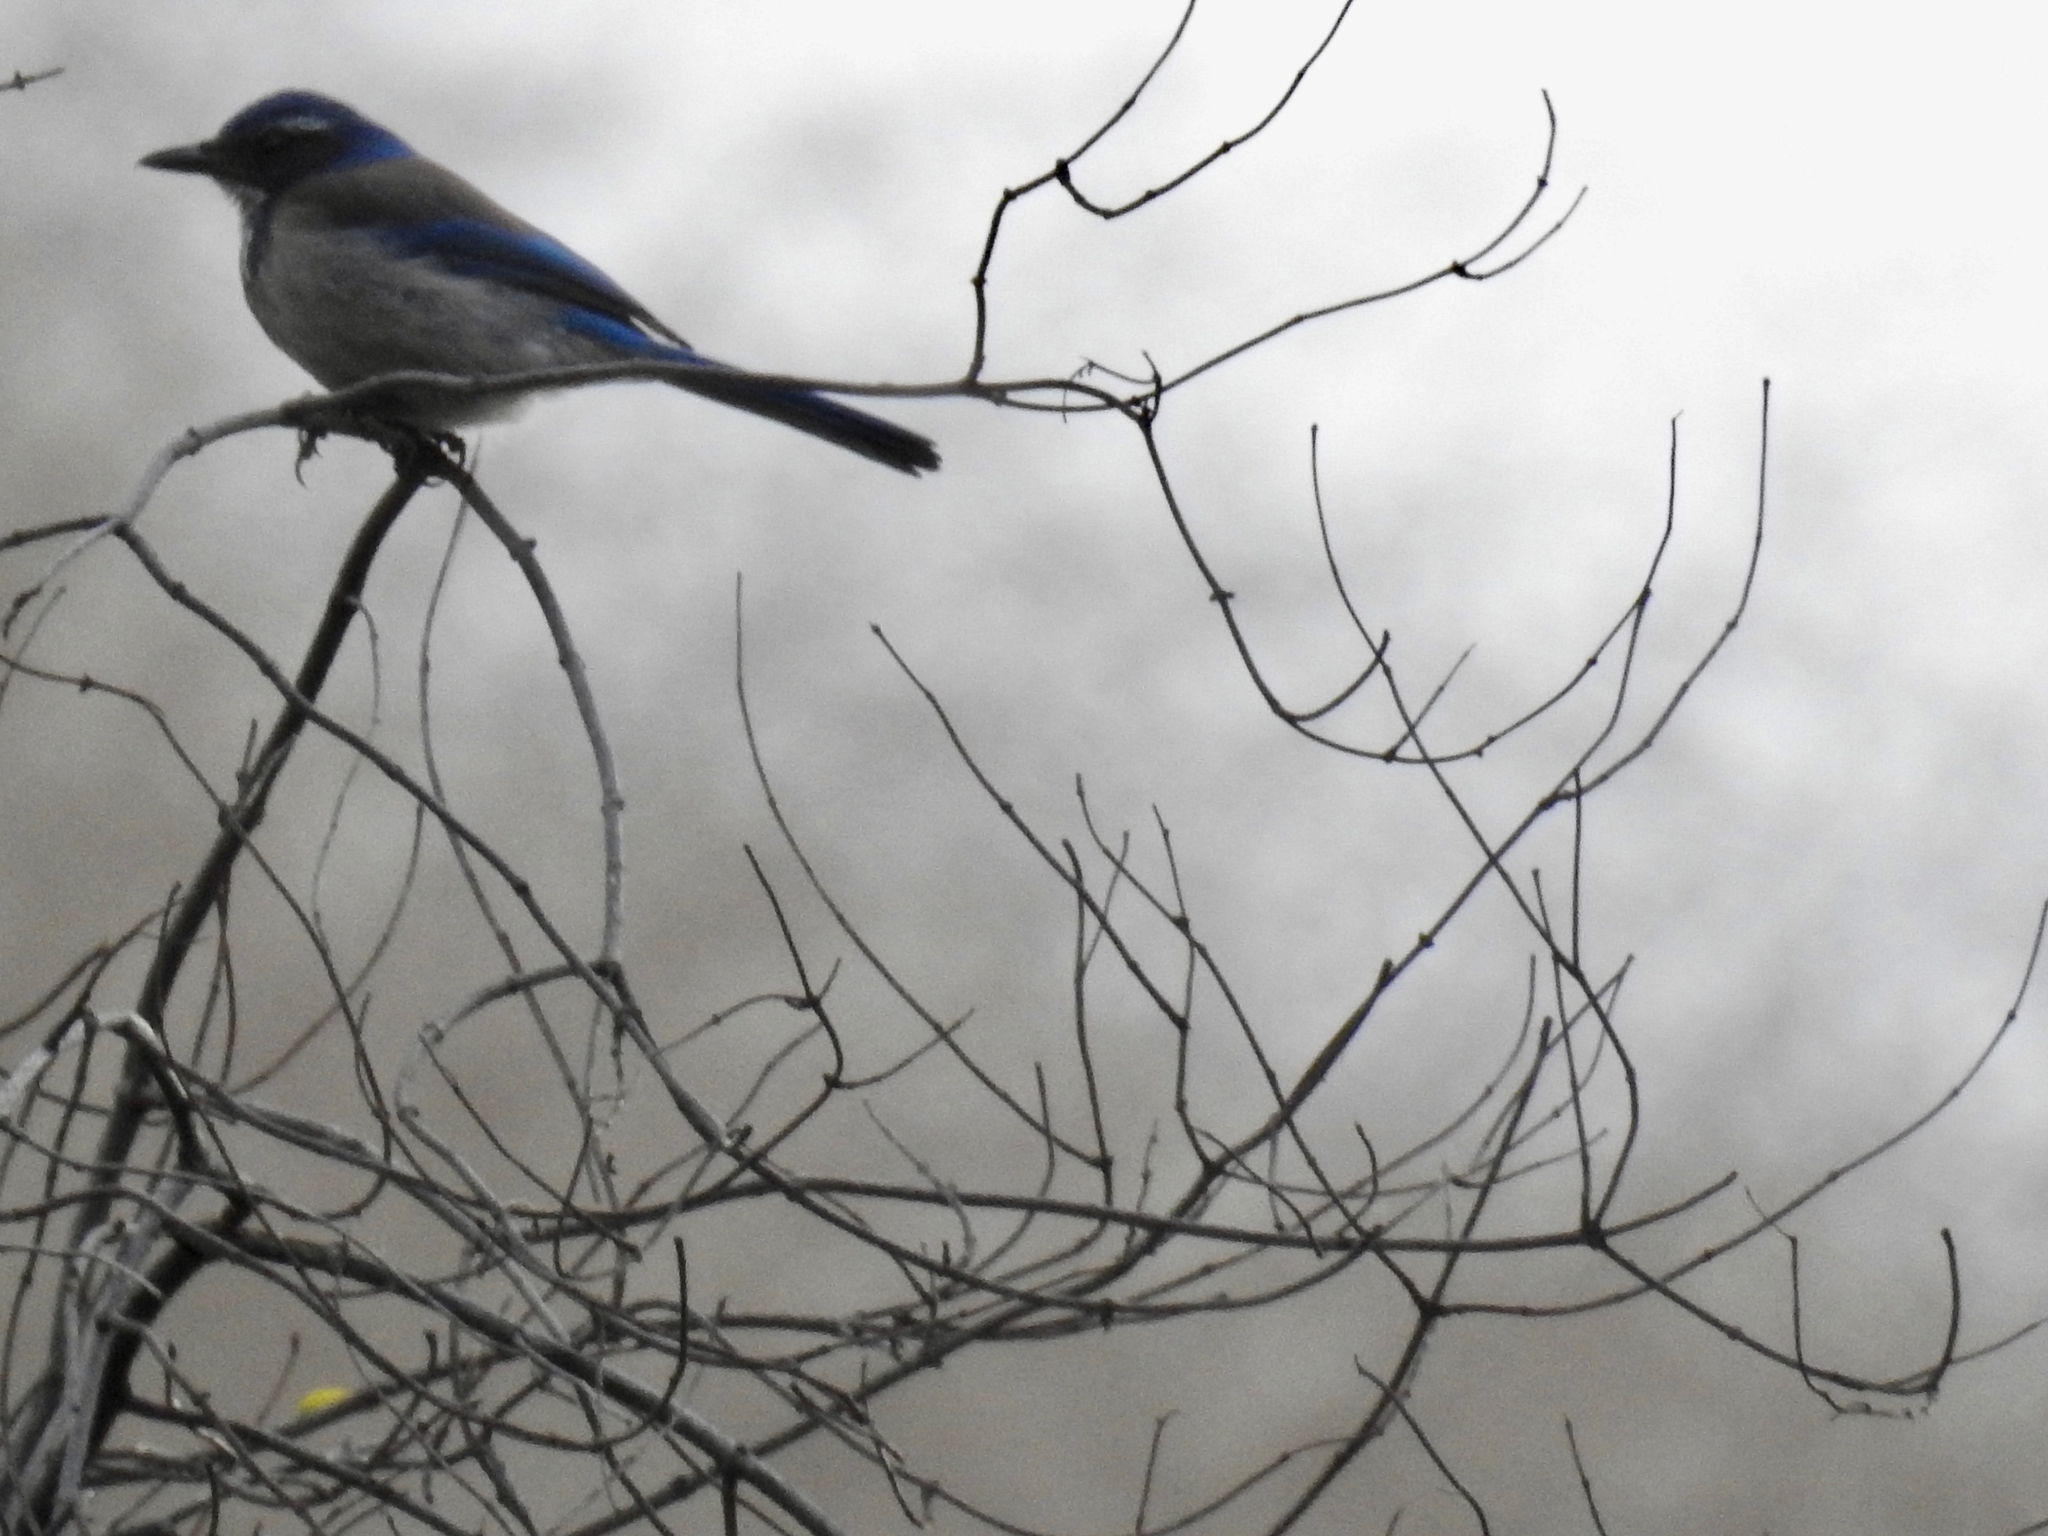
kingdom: Animalia
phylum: Chordata
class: Aves
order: Passeriformes
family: Corvidae
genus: Aphelocoma
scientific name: Aphelocoma californica
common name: California scrub-jay
